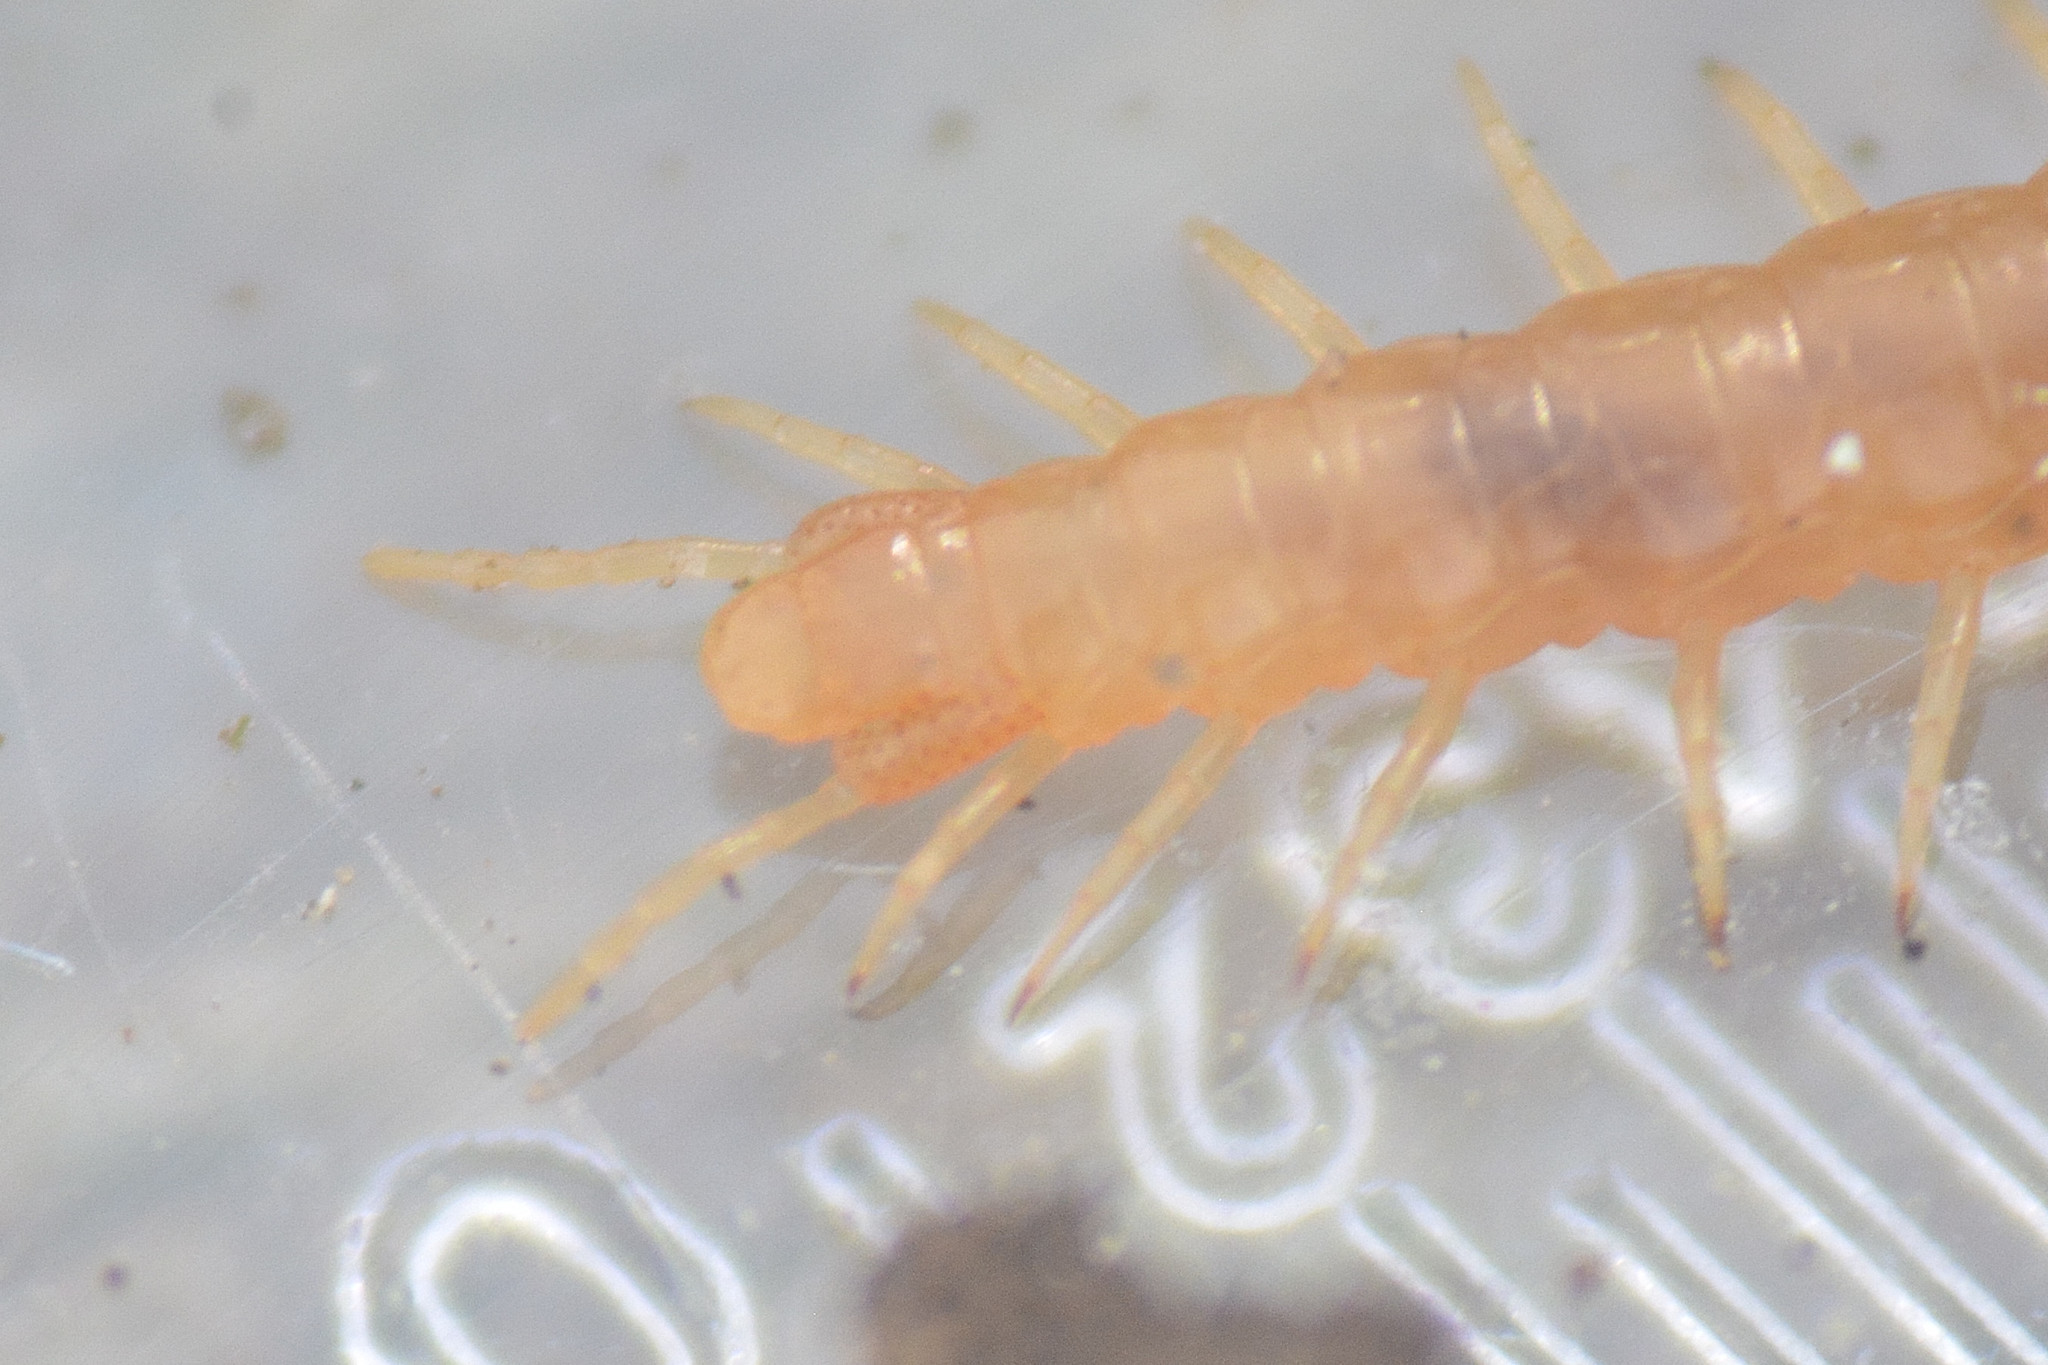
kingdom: Animalia
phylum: Arthropoda
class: Chilopoda
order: Geophilomorpha
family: Himantariidae
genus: Stigmatogaster
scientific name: Stigmatogaster subterranea
